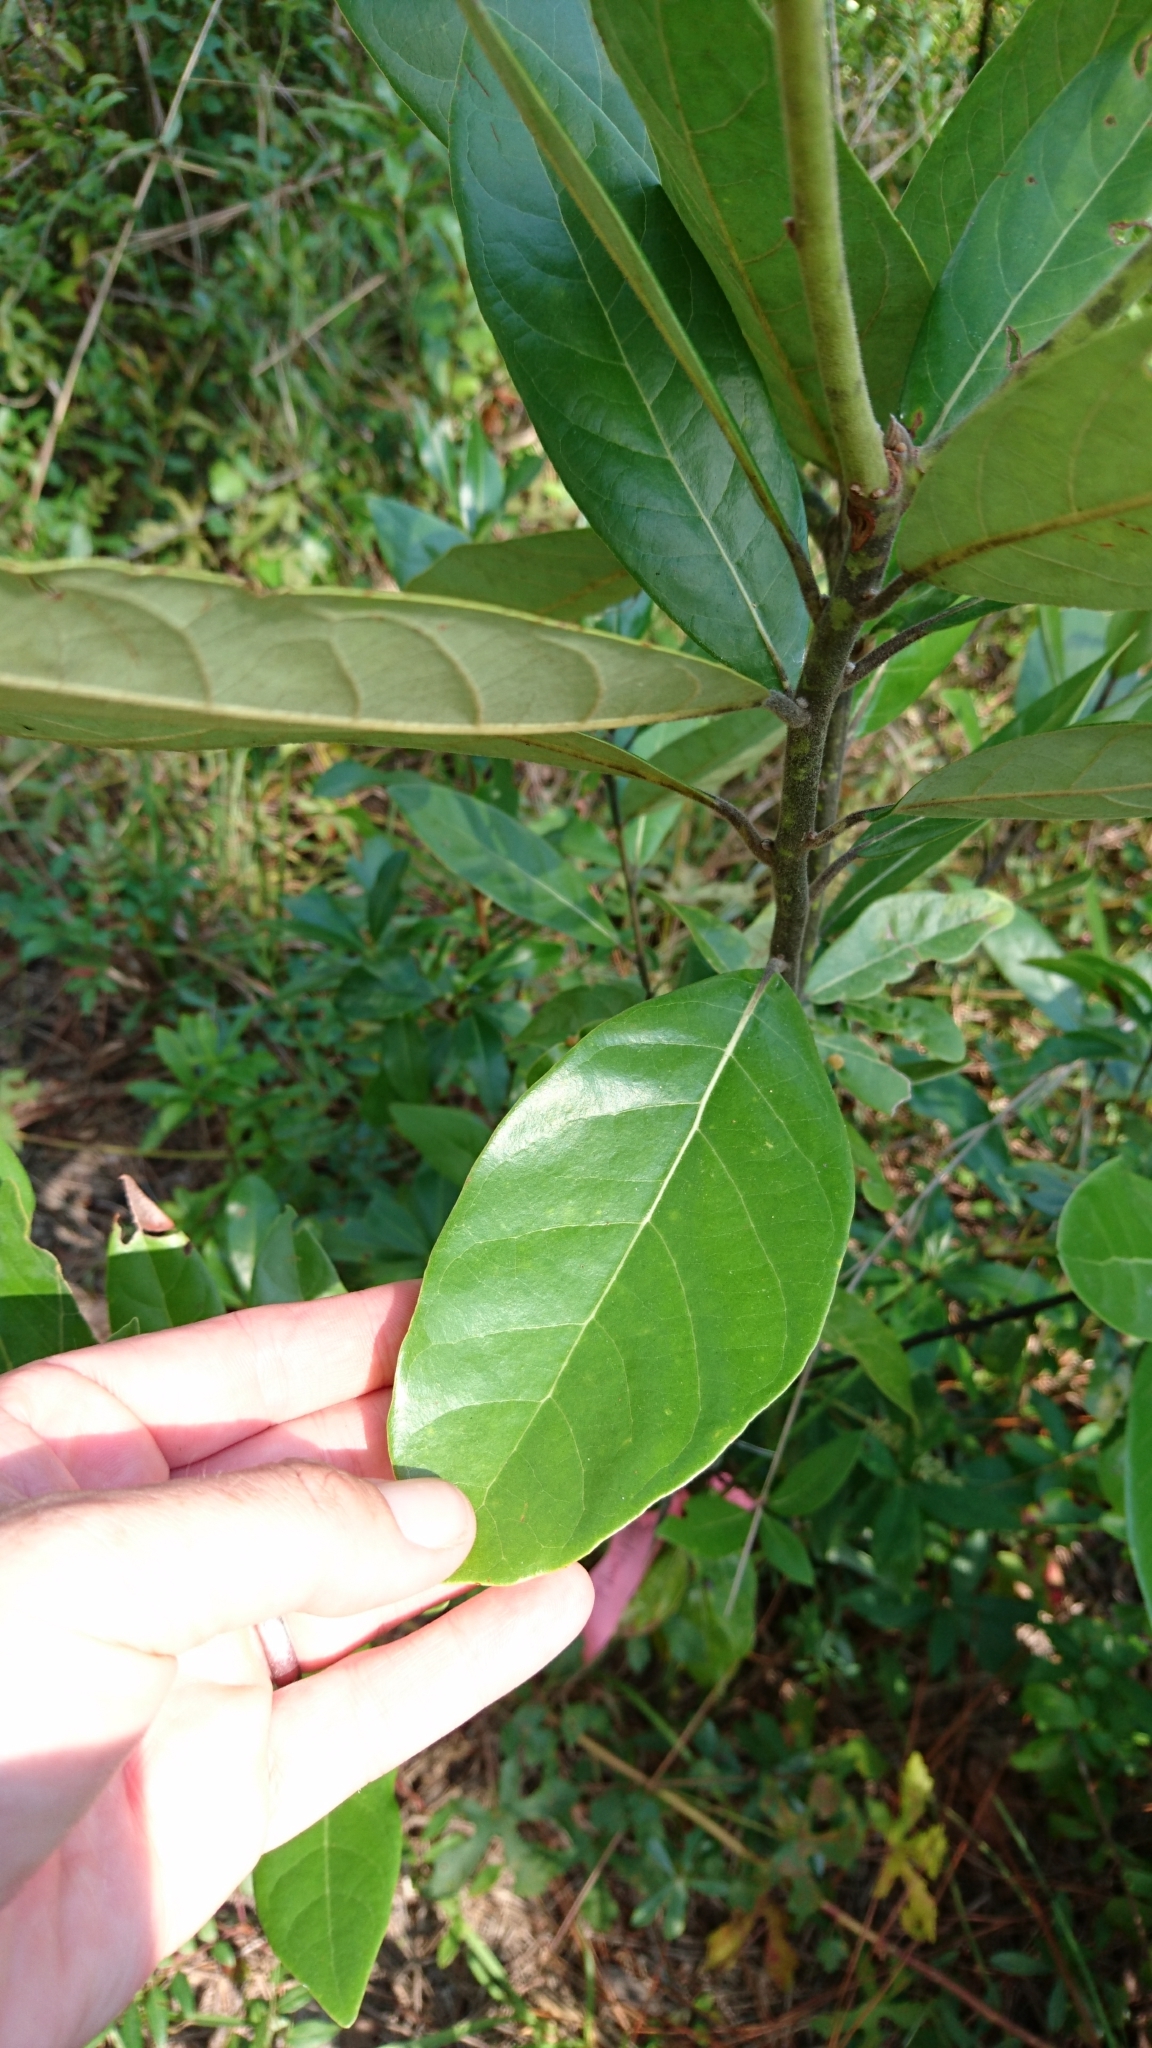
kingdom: Plantae
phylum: Tracheophyta
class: Magnoliopsida
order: Laurales
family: Lauraceae
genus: Persea
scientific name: Persea palustris
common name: Swampbay
